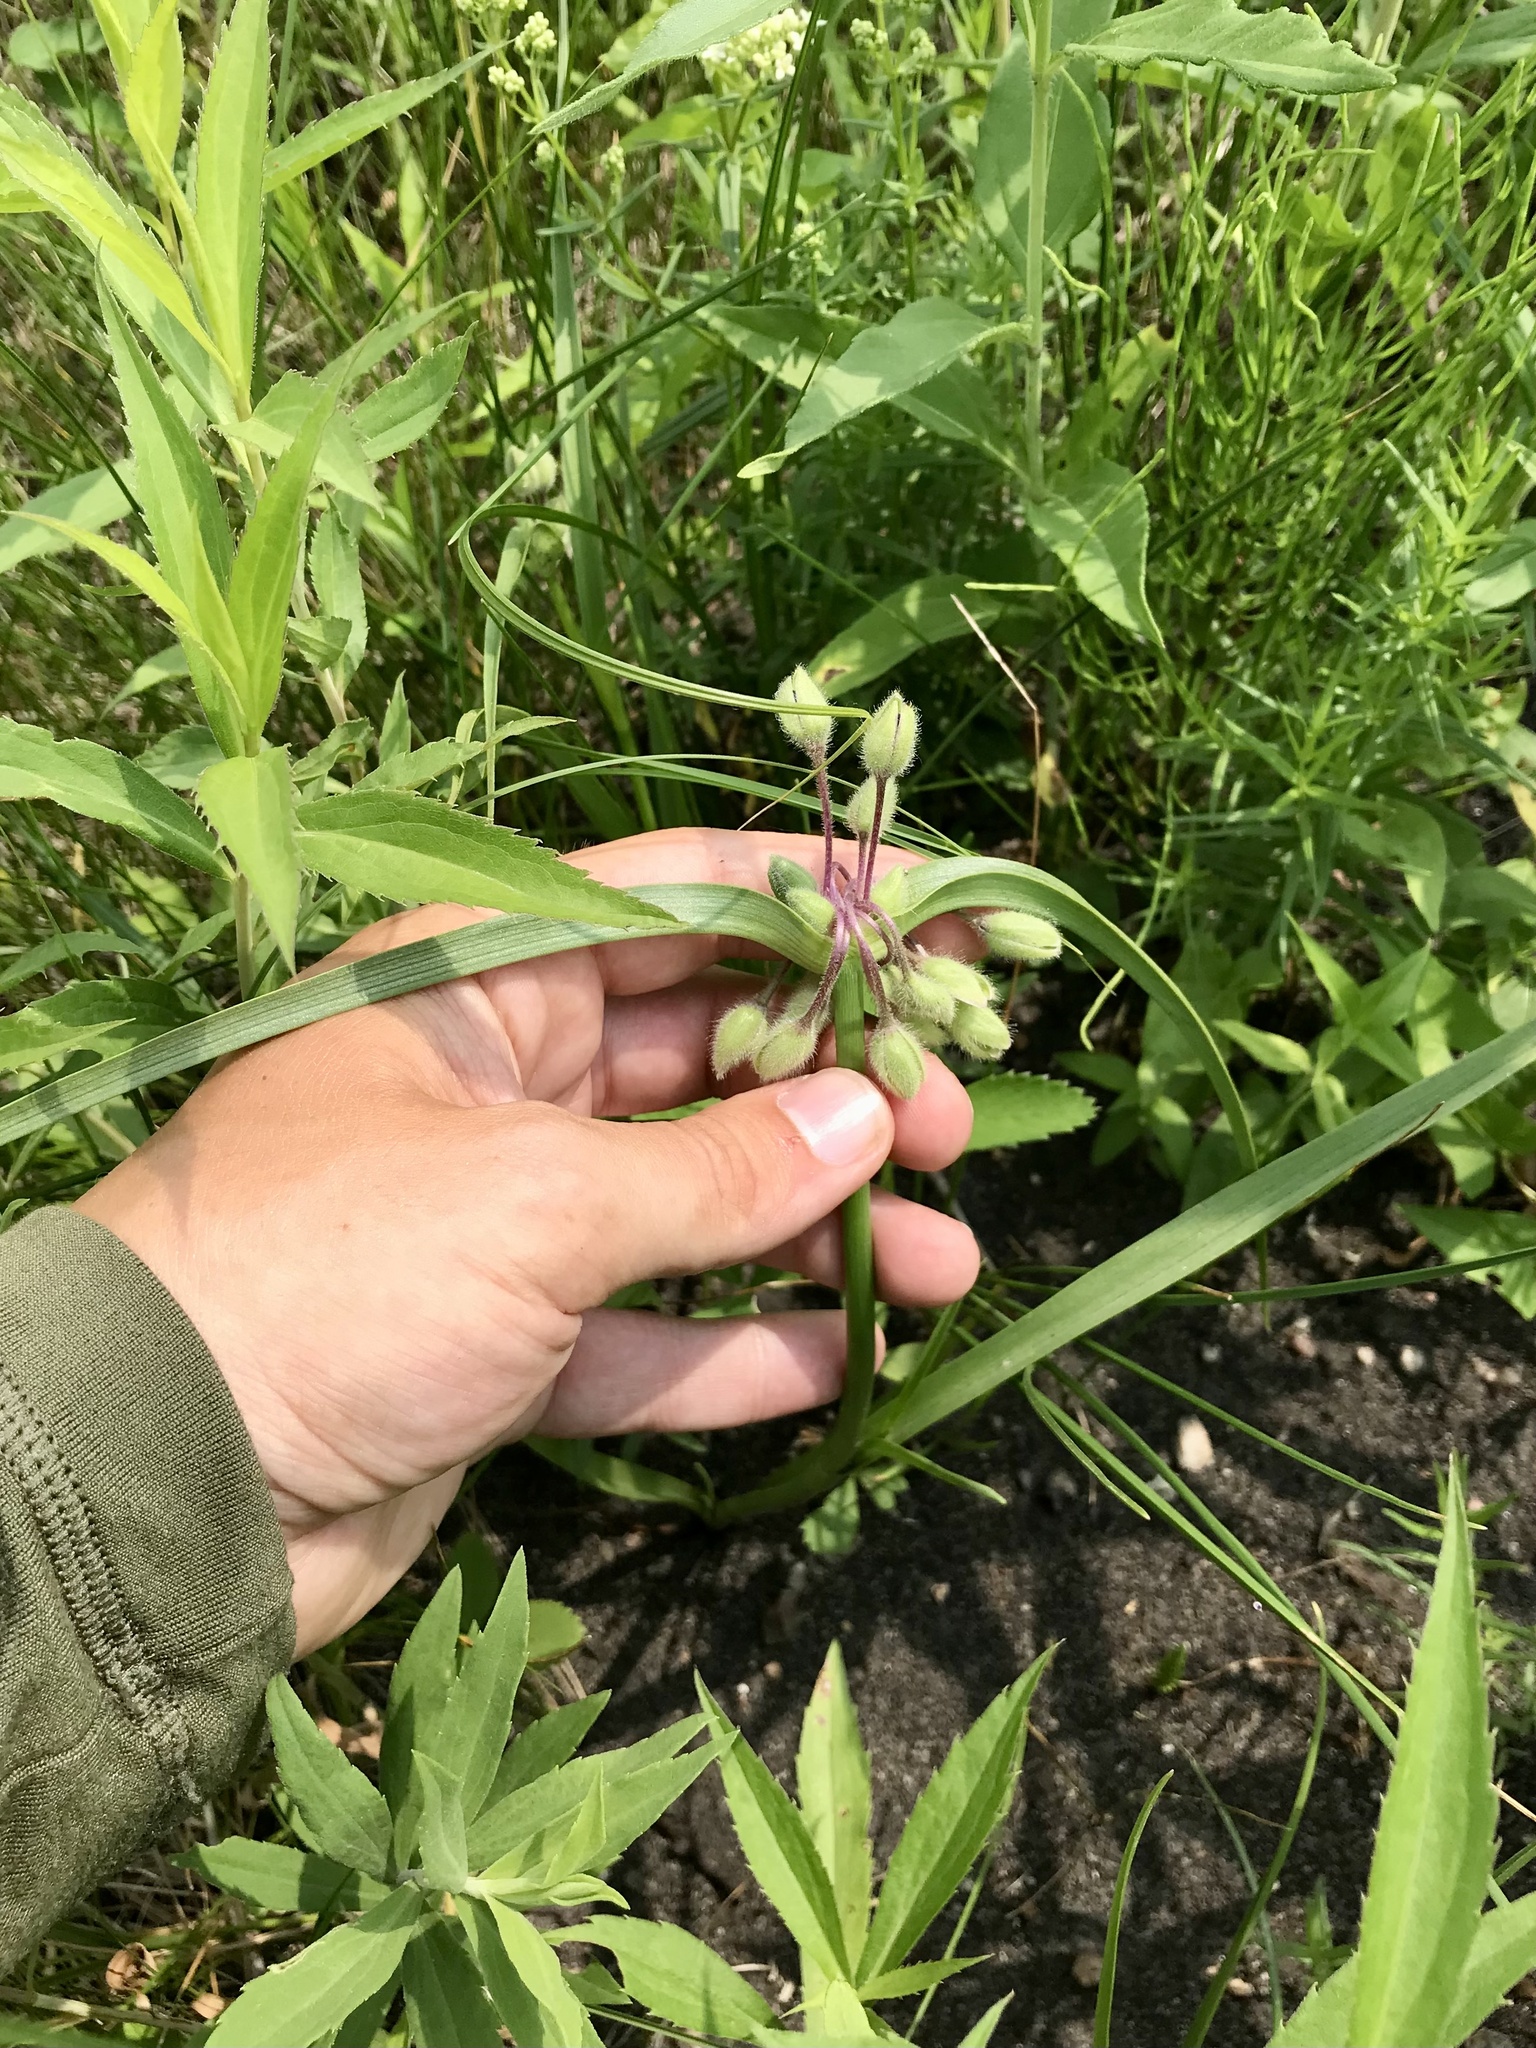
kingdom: Plantae
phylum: Tracheophyta
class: Liliopsida
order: Commelinales
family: Commelinaceae
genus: Tradescantia
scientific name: Tradescantia bracteata
